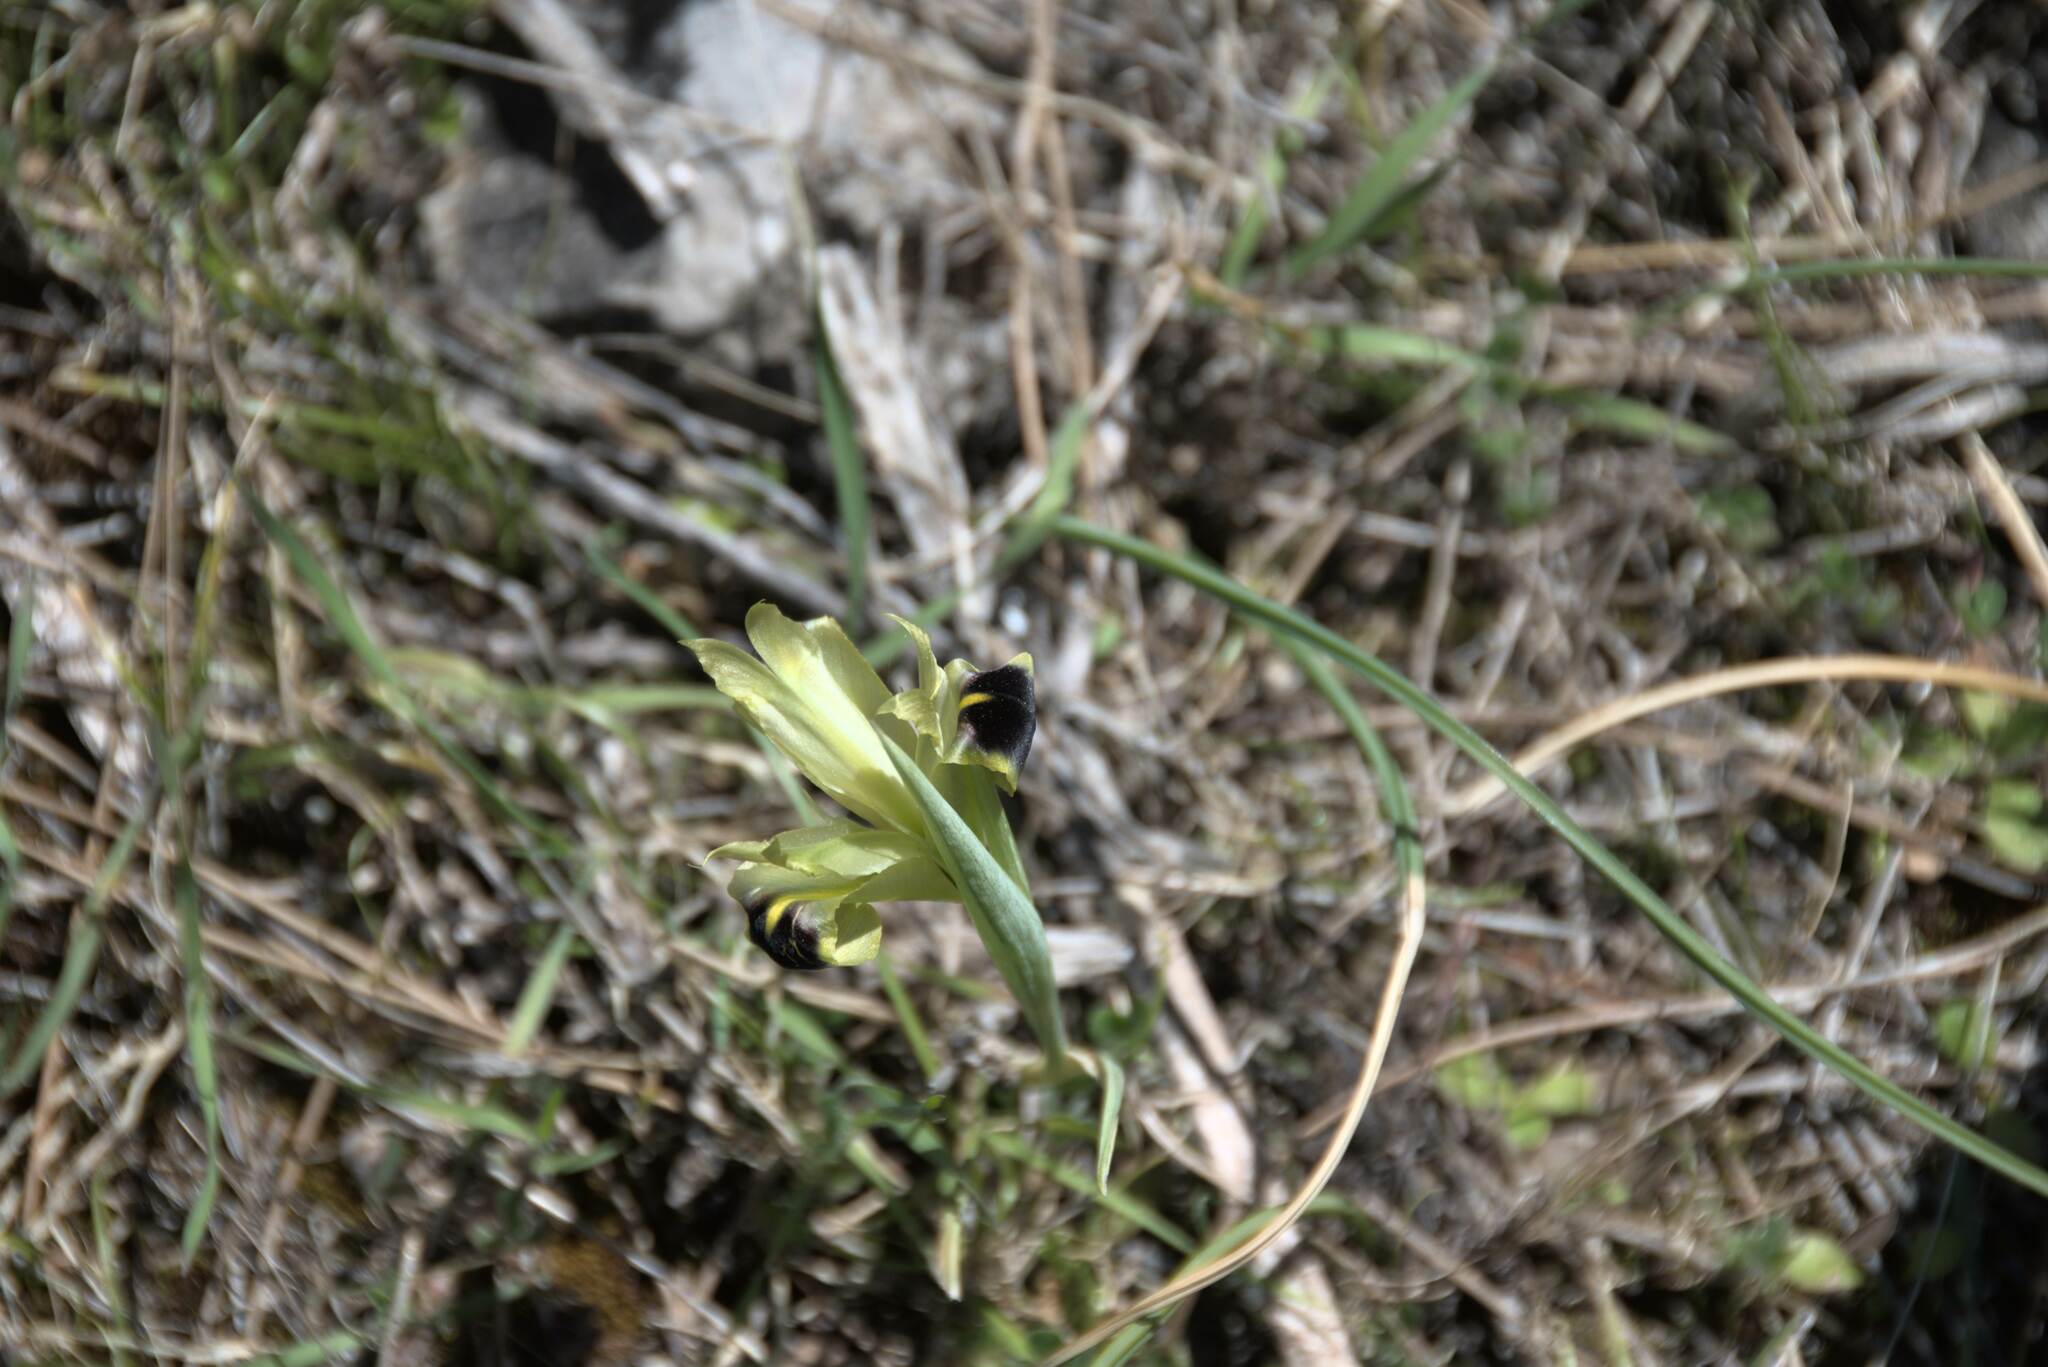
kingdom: Plantae
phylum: Tracheophyta
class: Liliopsida
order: Asparagales
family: Iridaceae
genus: Iris
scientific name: Iris tuberosa
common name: Snake's-head iris
